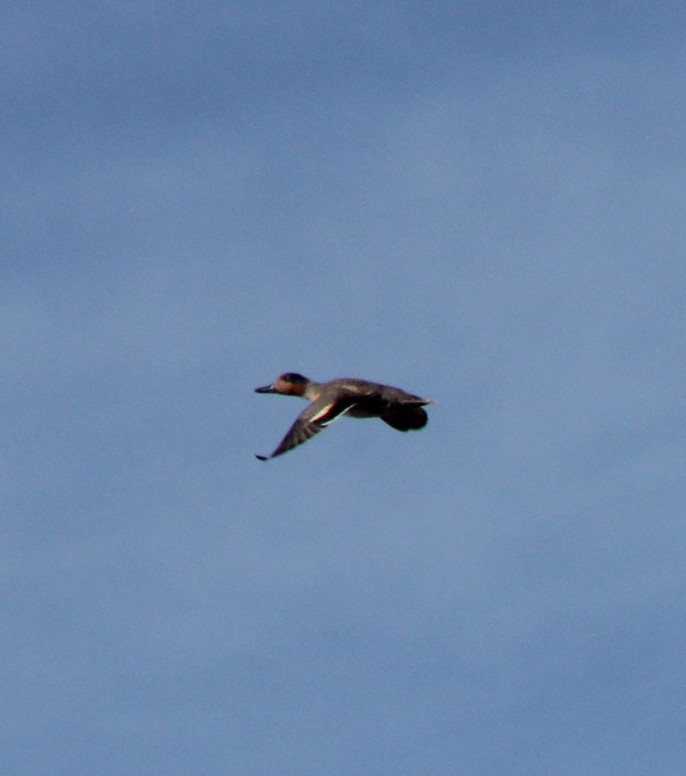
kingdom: Animalia
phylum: Chordata
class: Aves
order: Anseriformes
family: Anatidae
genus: Anas
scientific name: Anas crecca
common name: Eurasian teal
